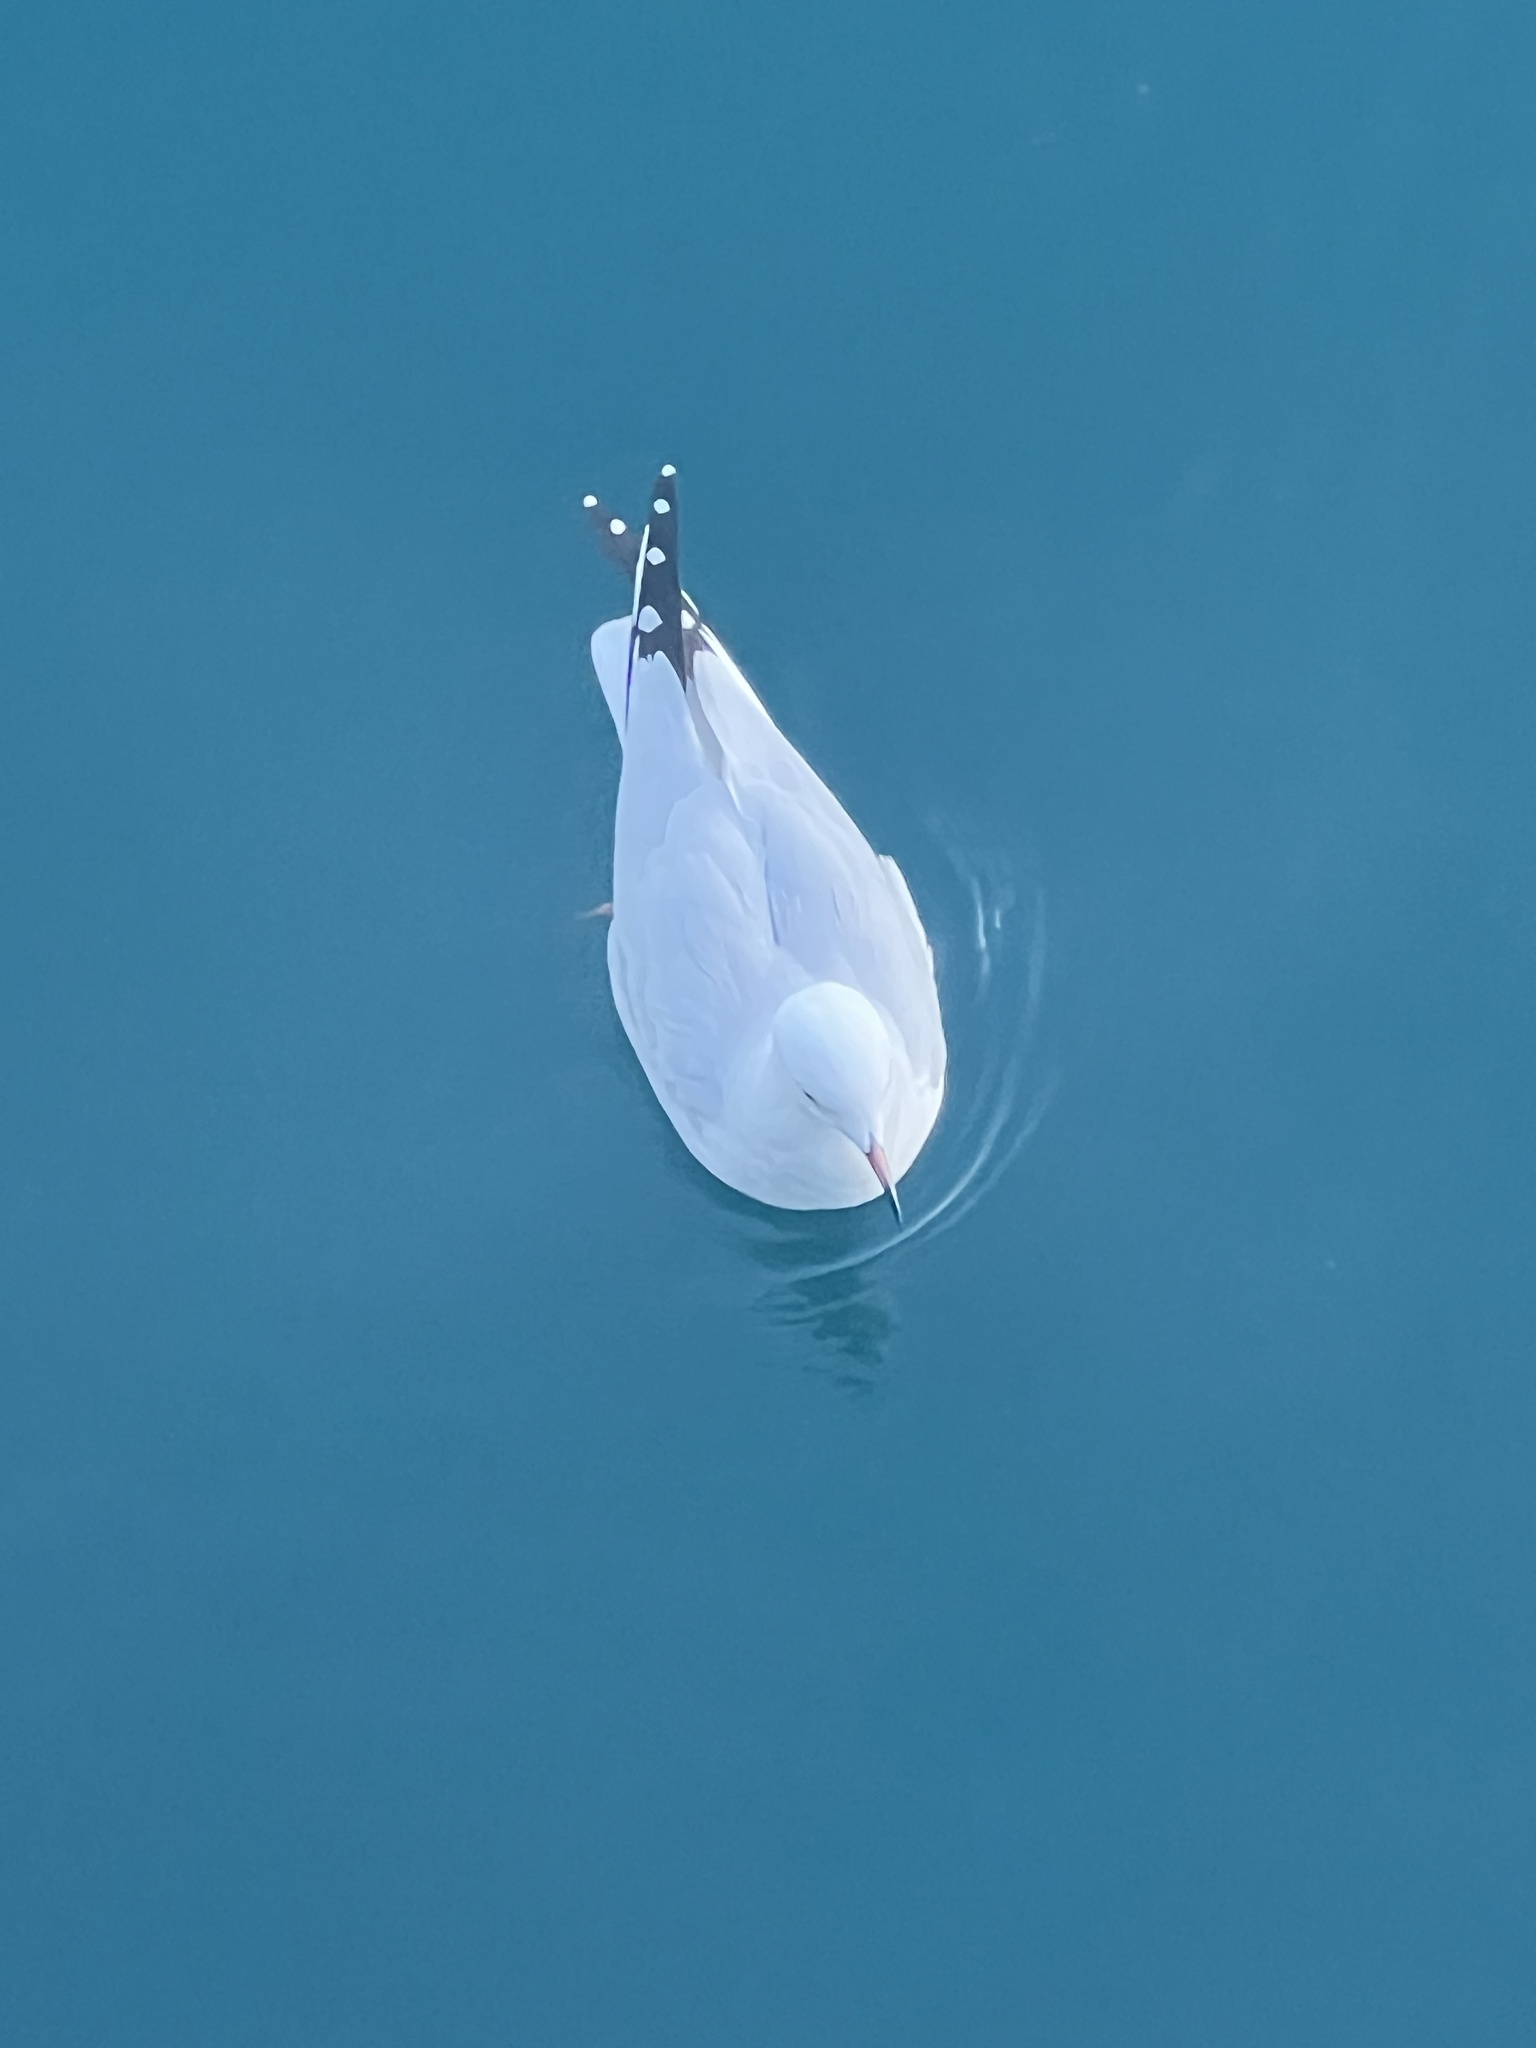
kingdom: Animalia
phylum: Chordata
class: Aves
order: Charadriiformes
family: Laridae
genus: Chroicocephalus
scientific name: Chroicocephalus bulleri
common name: Black-billed gull
